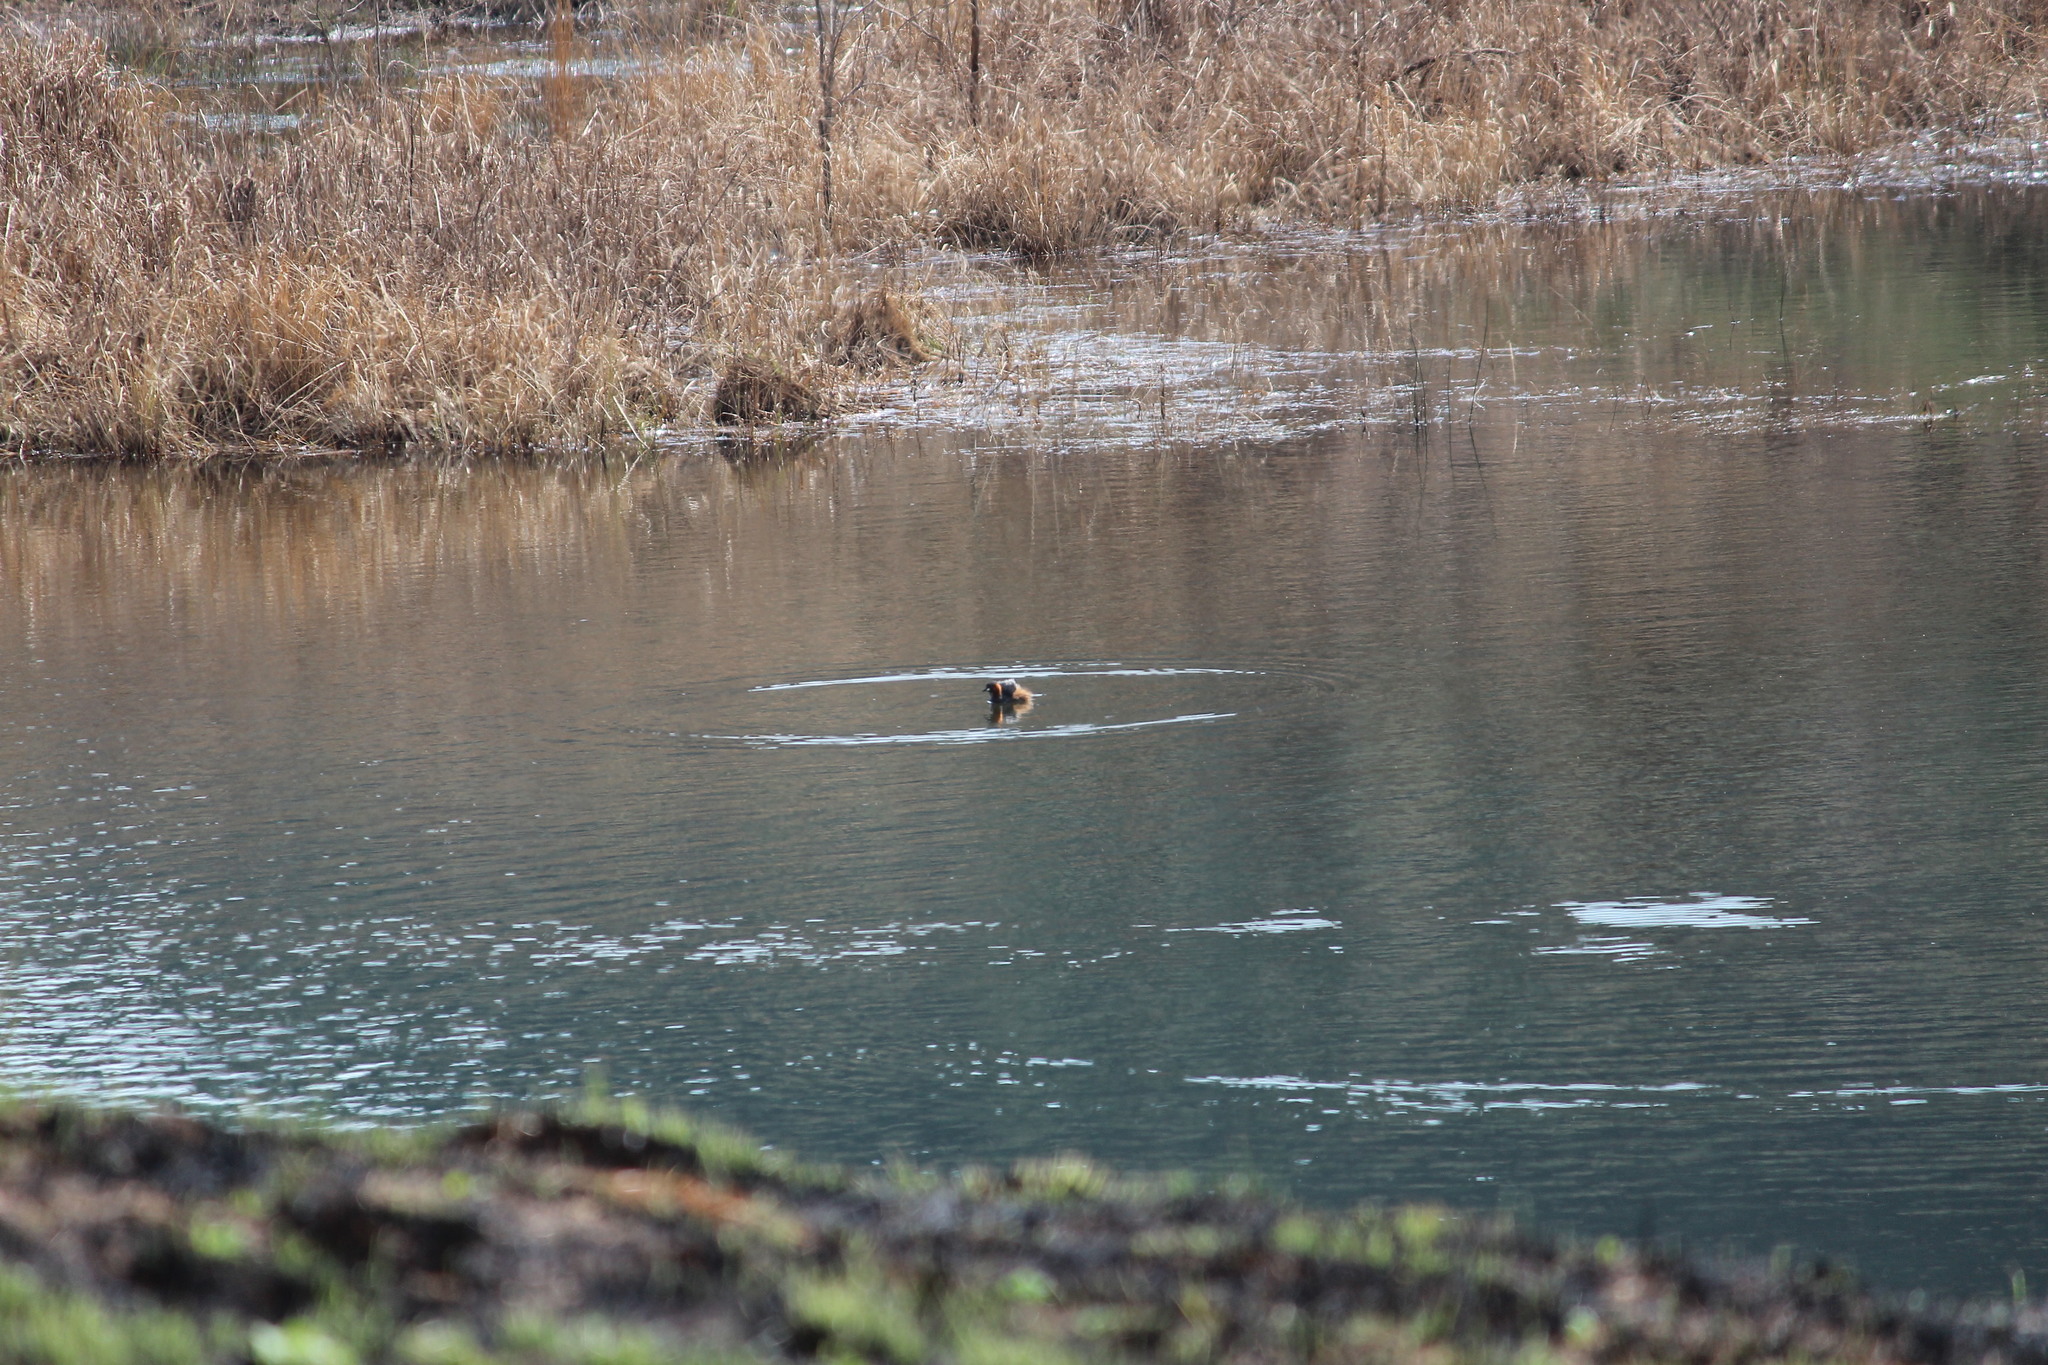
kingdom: Animalia
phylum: Chordata
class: Aves
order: Podicipediformes
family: Podicipedidae
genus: Tachybaptus
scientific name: Tachybaptus ruficollis
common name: Little grebe
